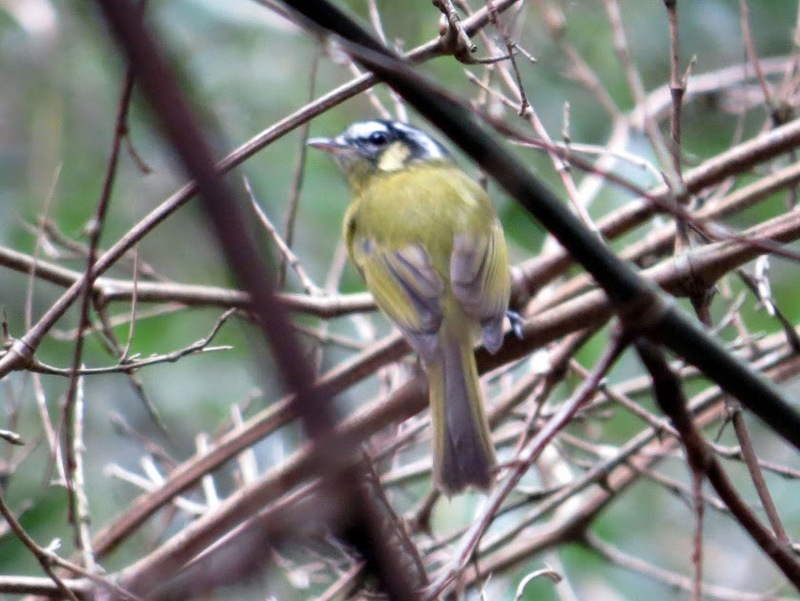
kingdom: Animalia
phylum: Chordata
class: Aves
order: Passeriformes
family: Tyrannidae
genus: Phylloscartes
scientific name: Phylloscartes eximius
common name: Southern bristle-tyrant
